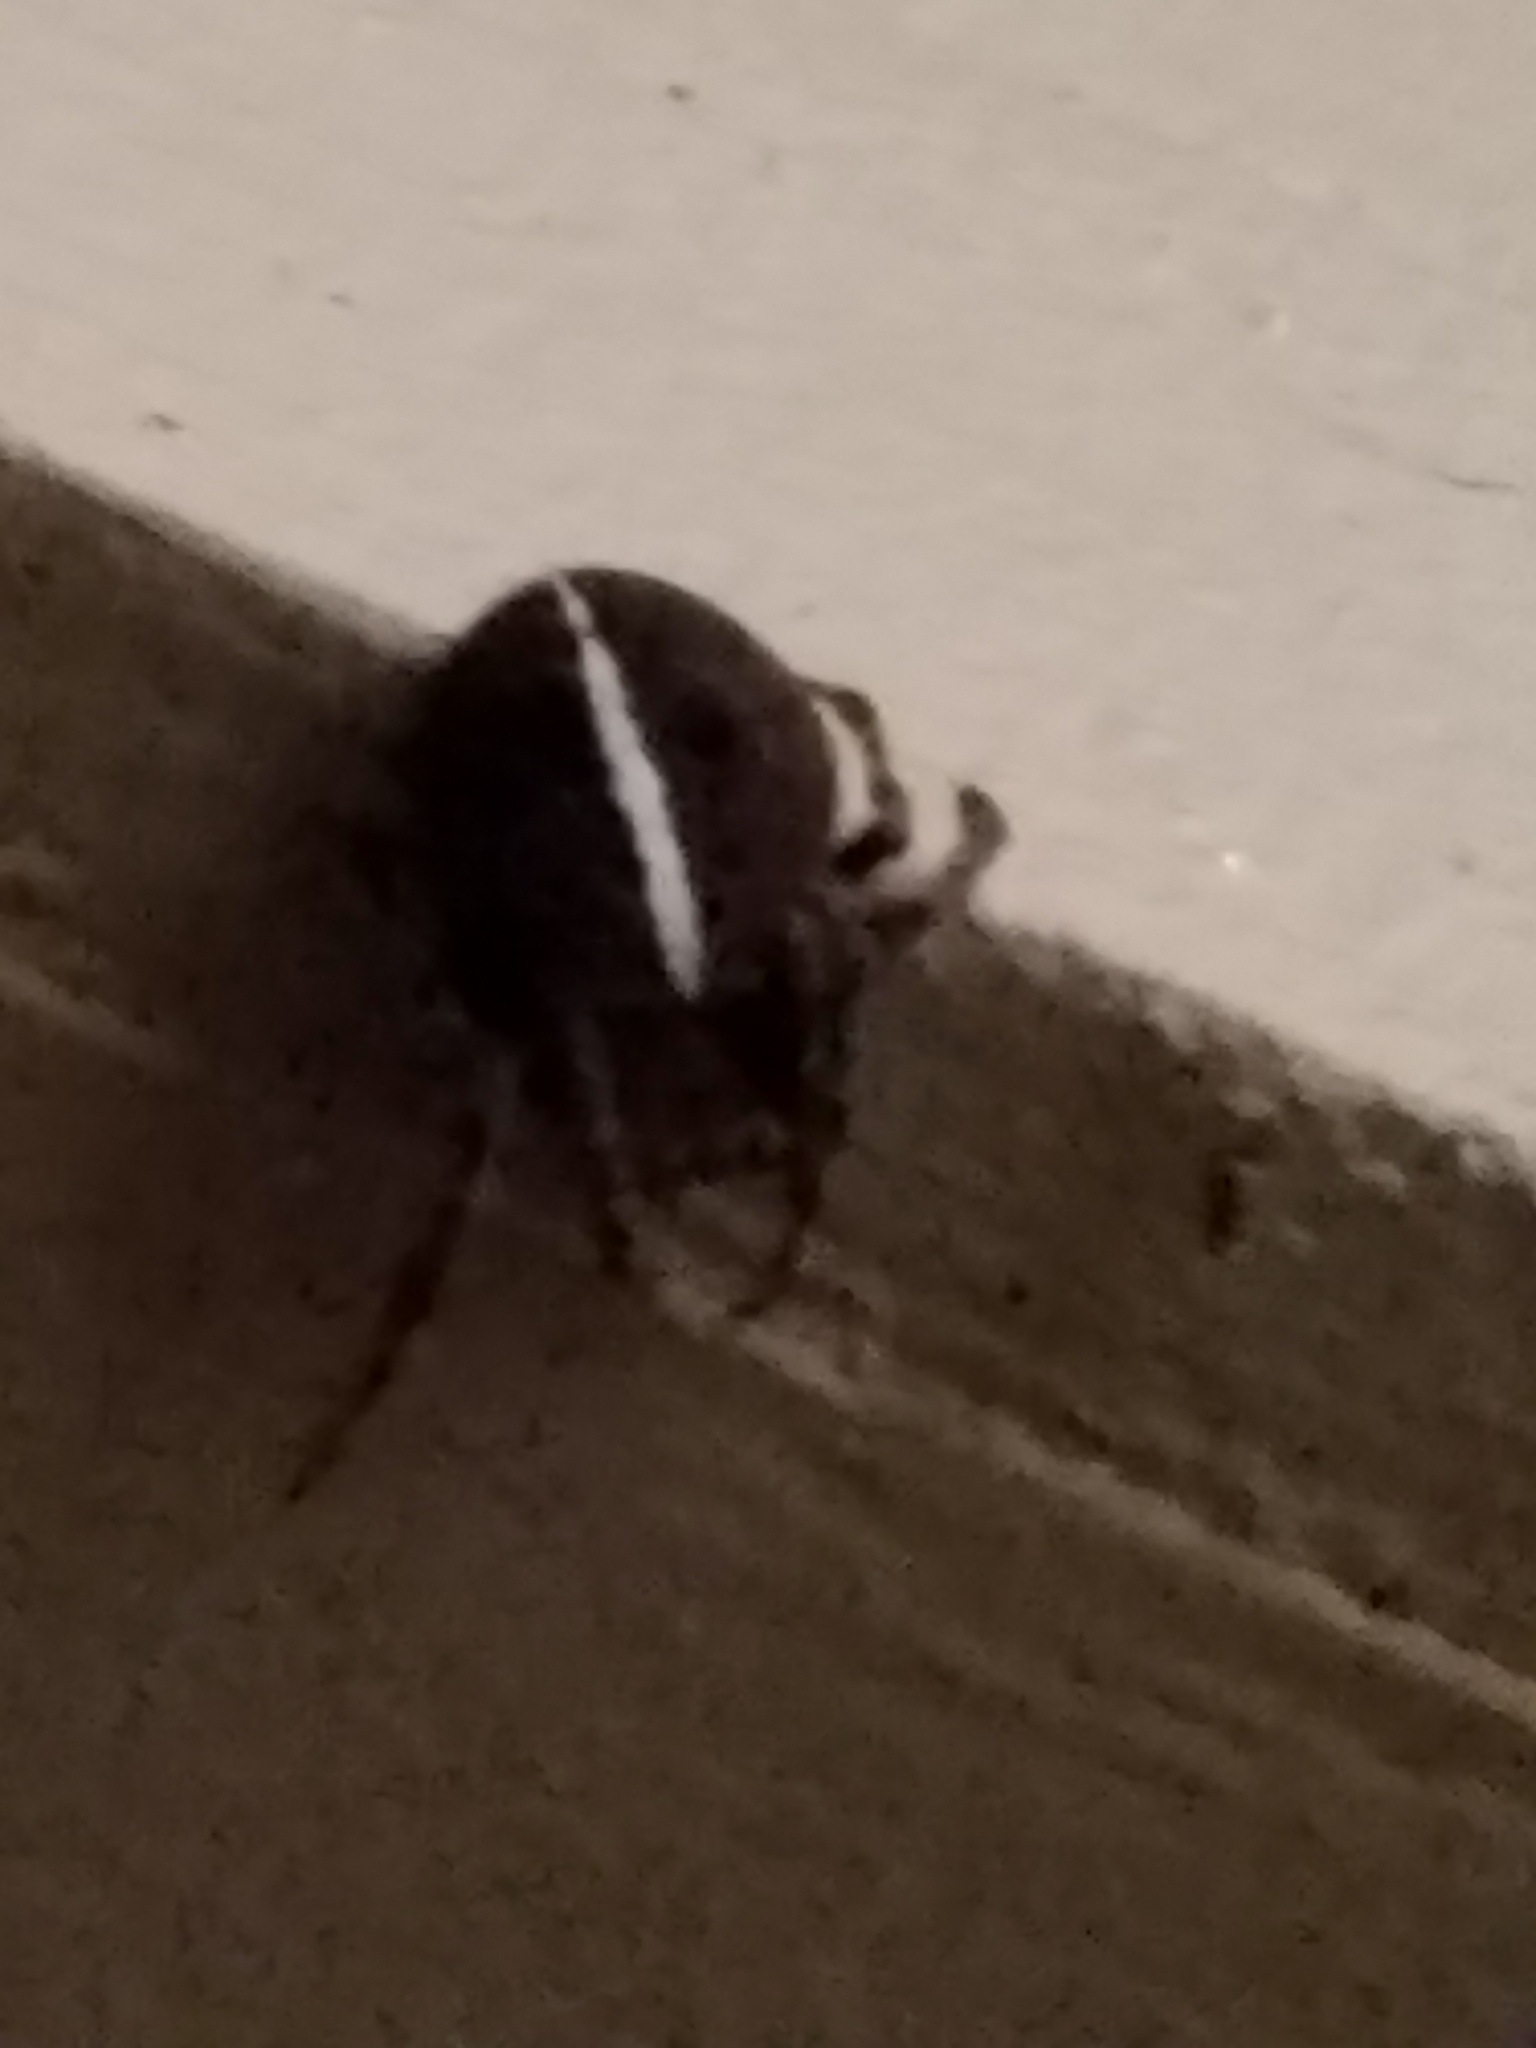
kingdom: Animalia
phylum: Arthropoda
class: Arachnida
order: Araneae
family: Araneidae
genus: Eriophora
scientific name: Eriophora ravilla
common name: Orb weavers
